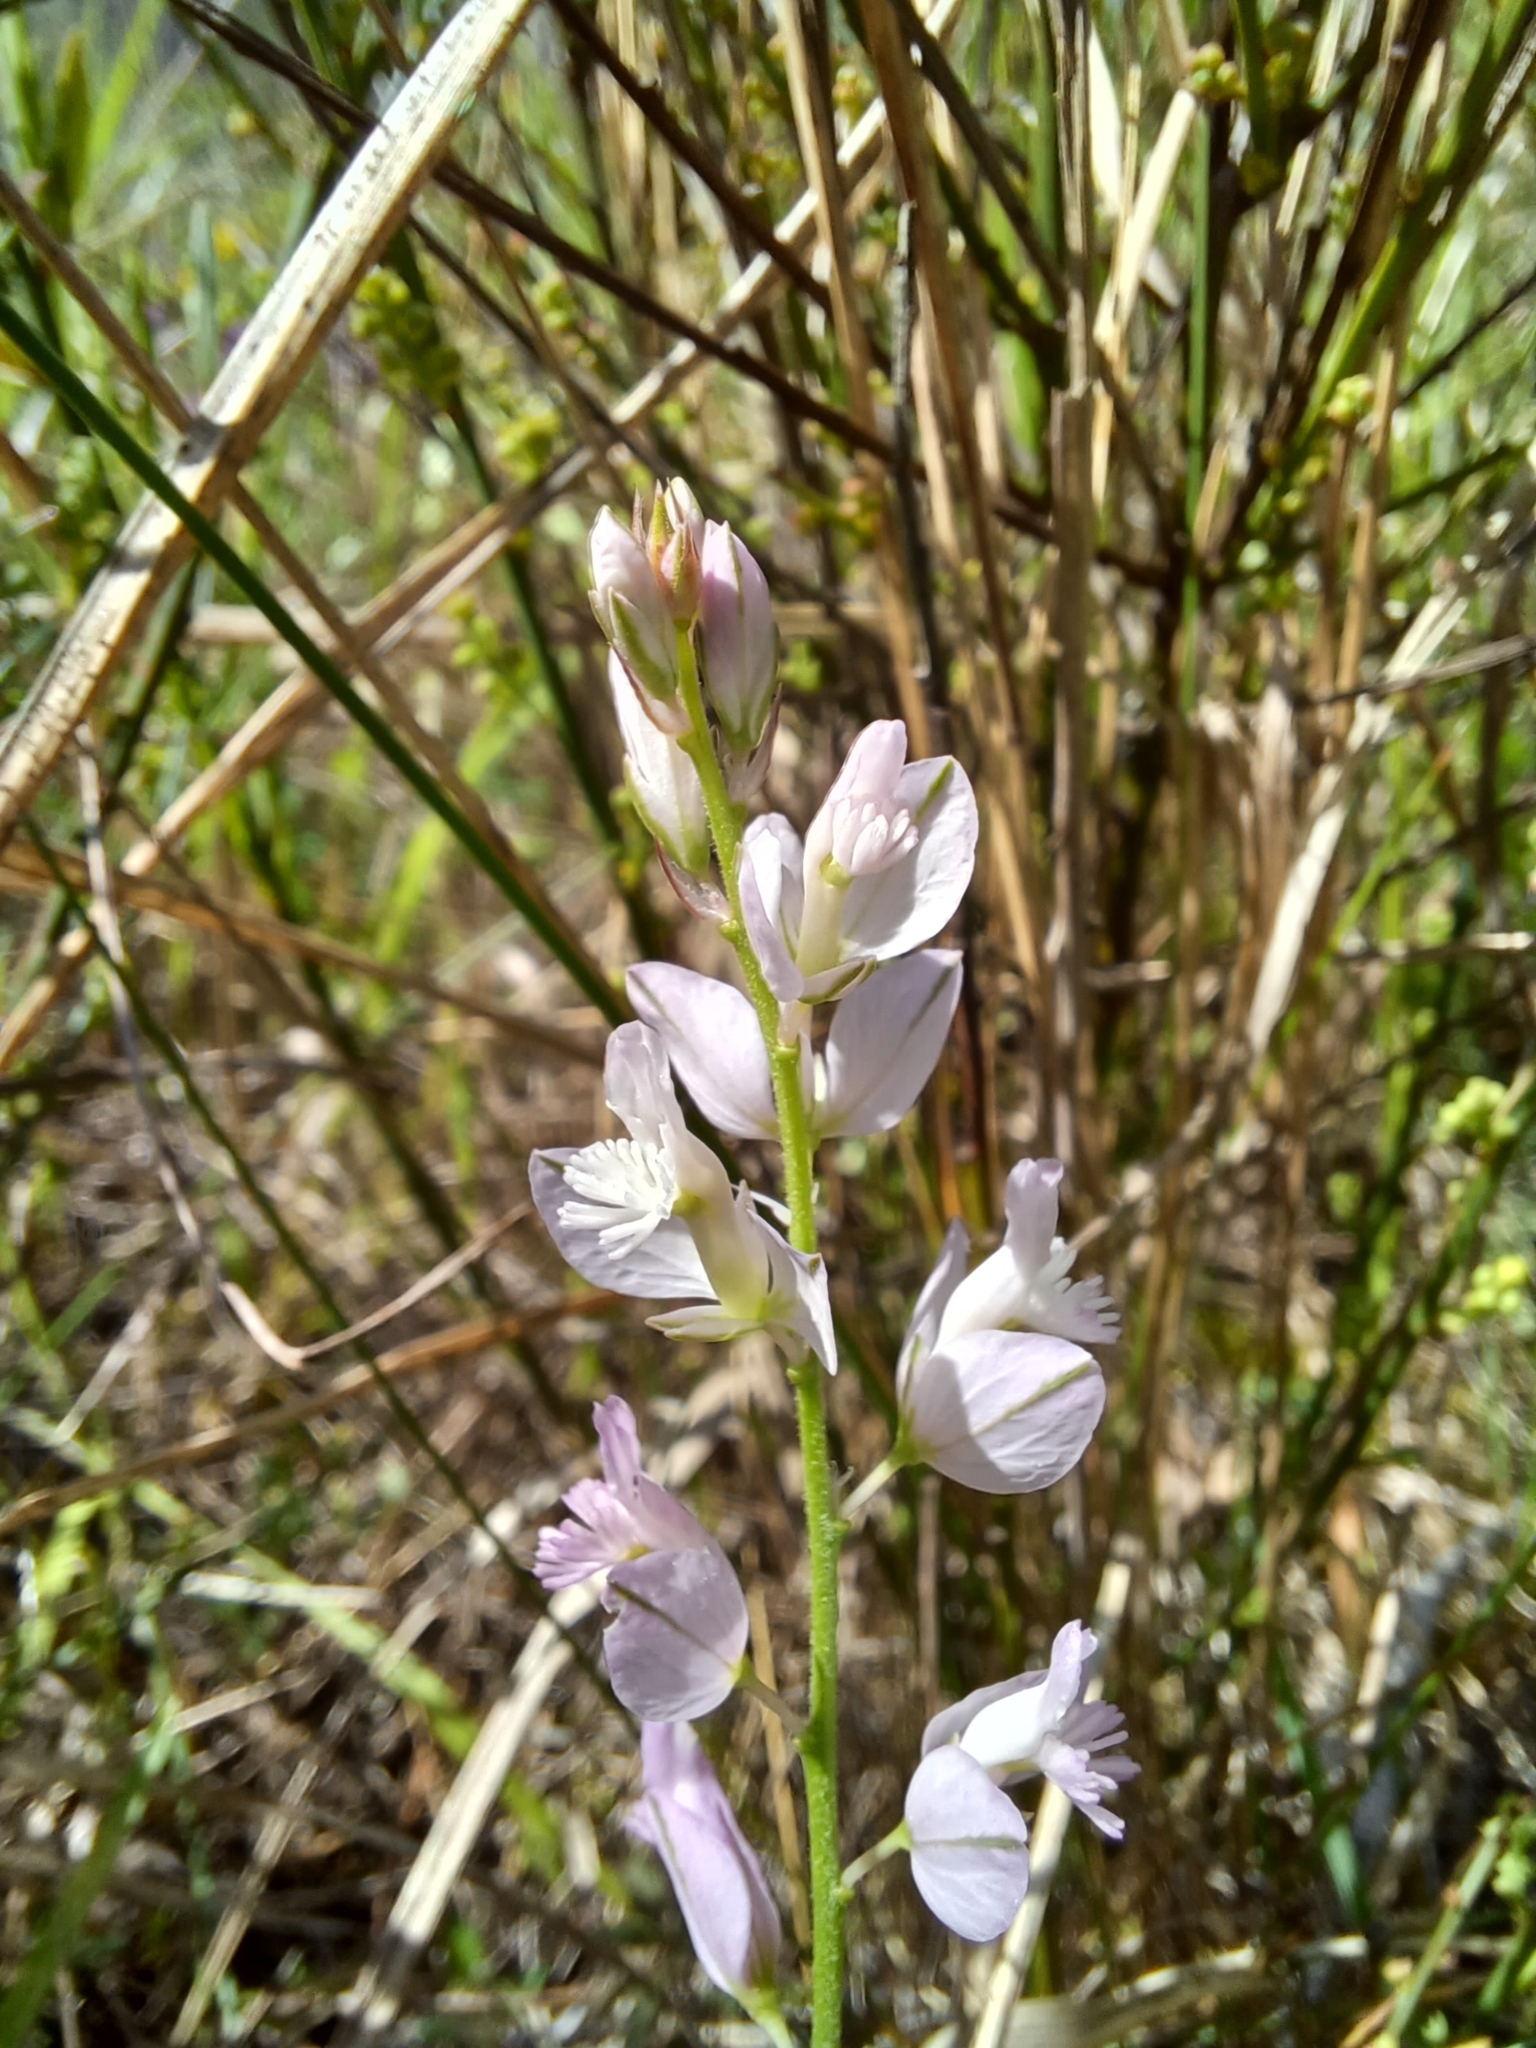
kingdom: Plantae
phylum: Tracheophyta
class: Magnoliopsida
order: Fabales
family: Polygalaceae
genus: Polygala
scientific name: Polygala nicaeensis
